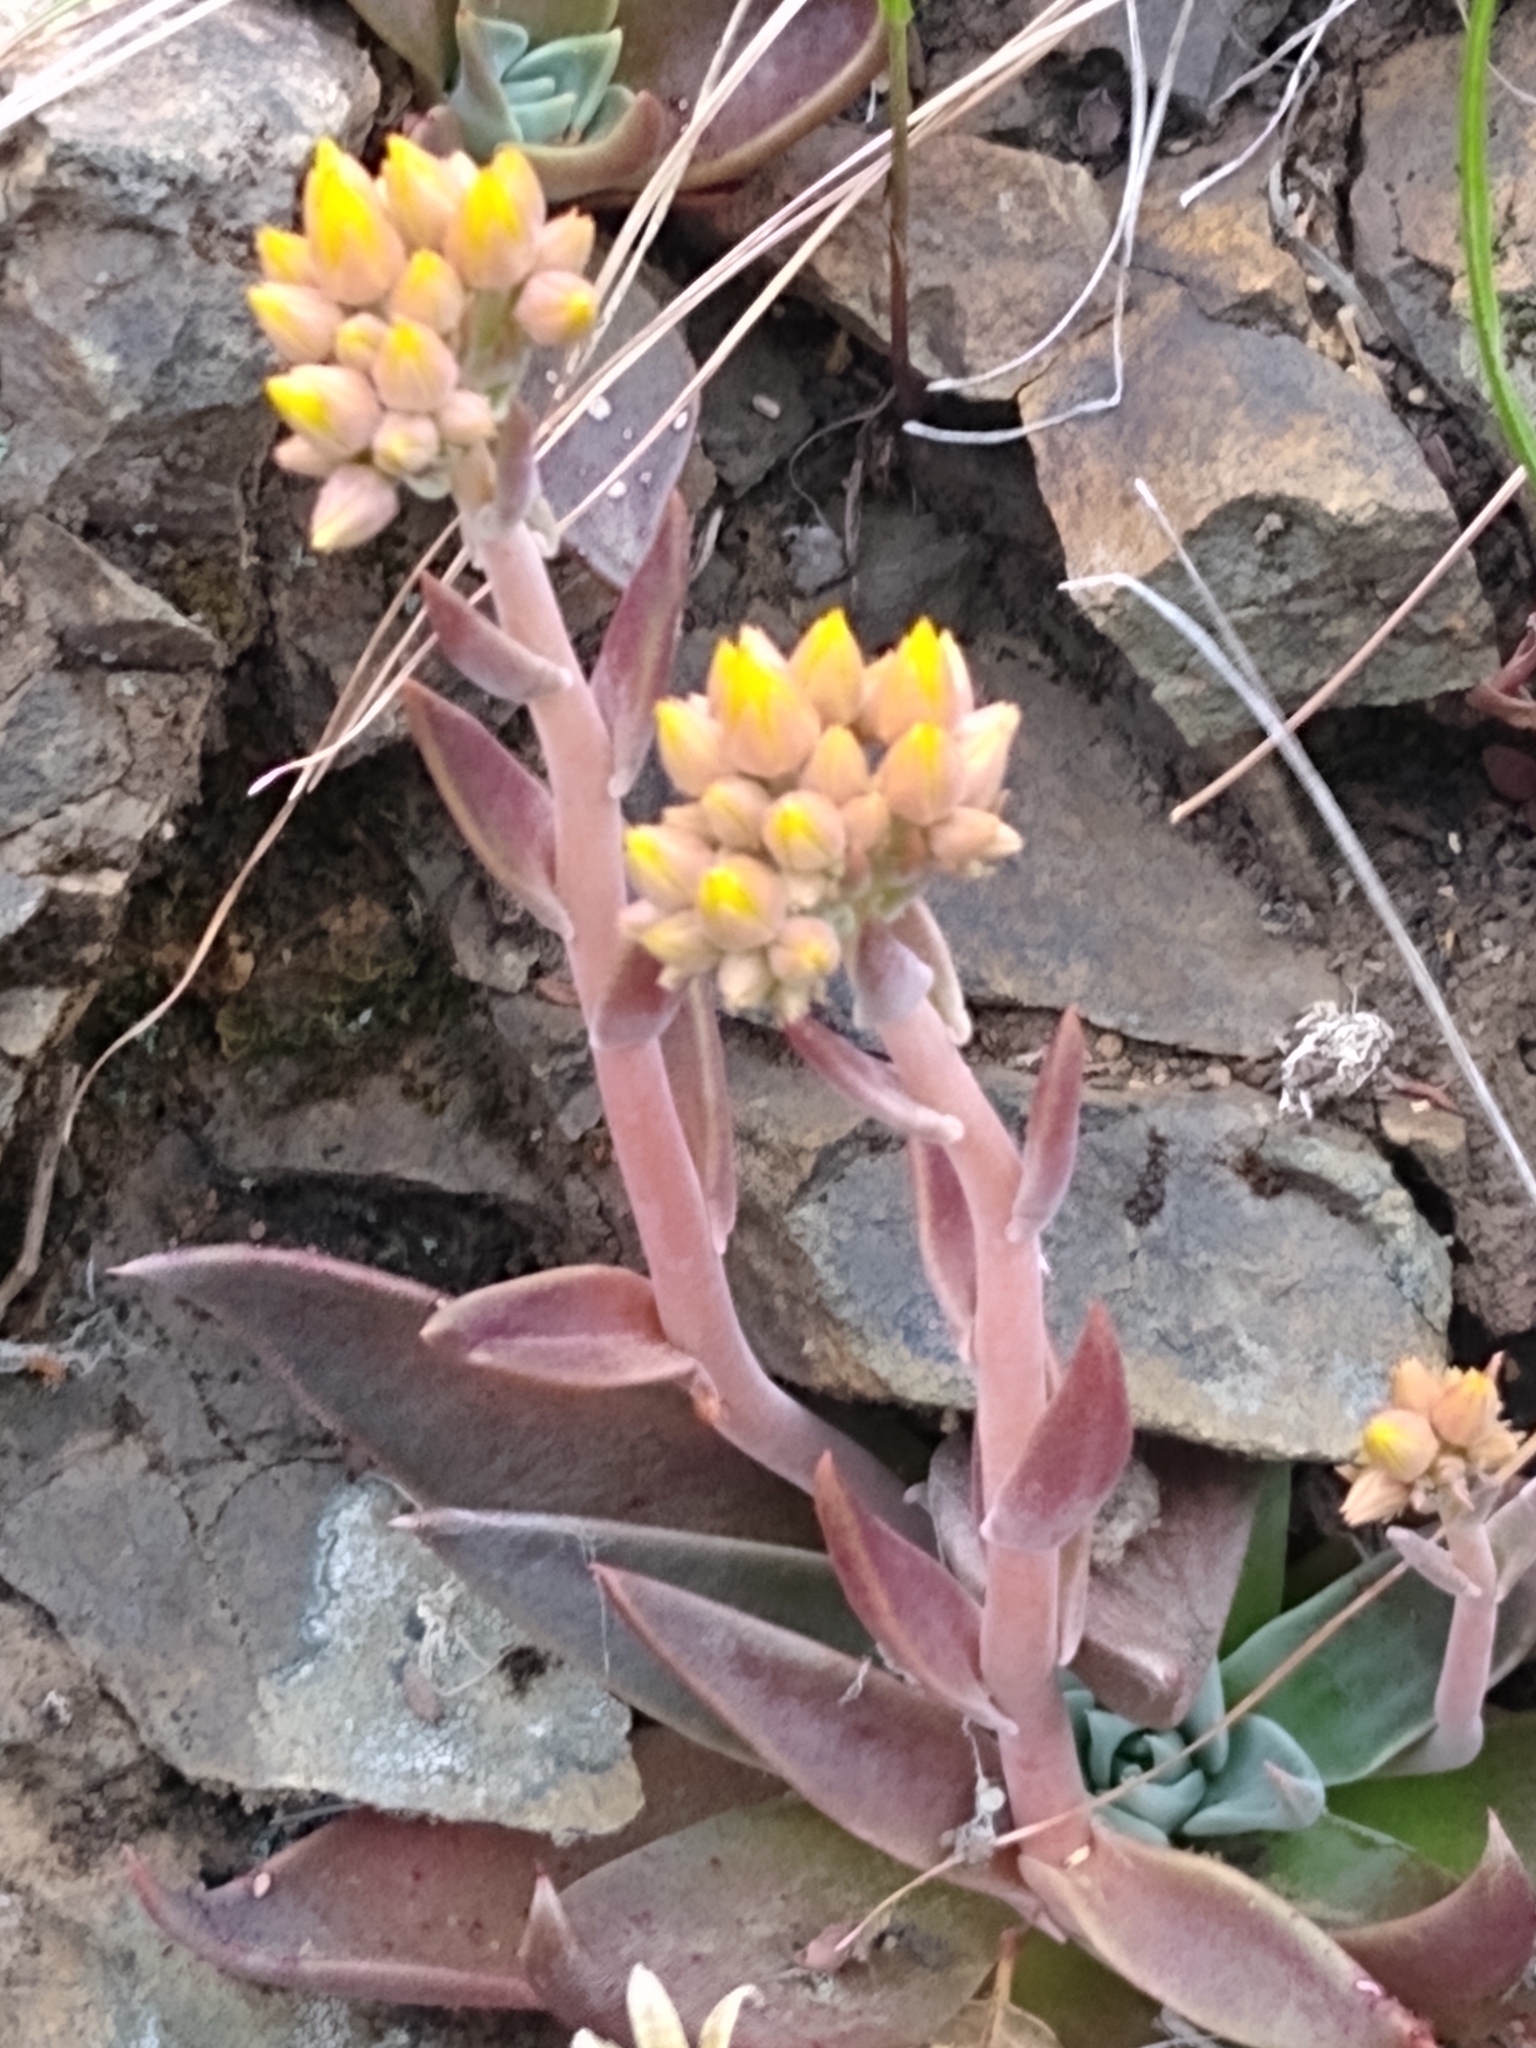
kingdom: Plantae
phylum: Tracheophyta
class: Magnoliopsida
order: Saxifragales
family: Crassulaceae
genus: Dudleya
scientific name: Dudleya cymosa
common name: Canyon dudleya
